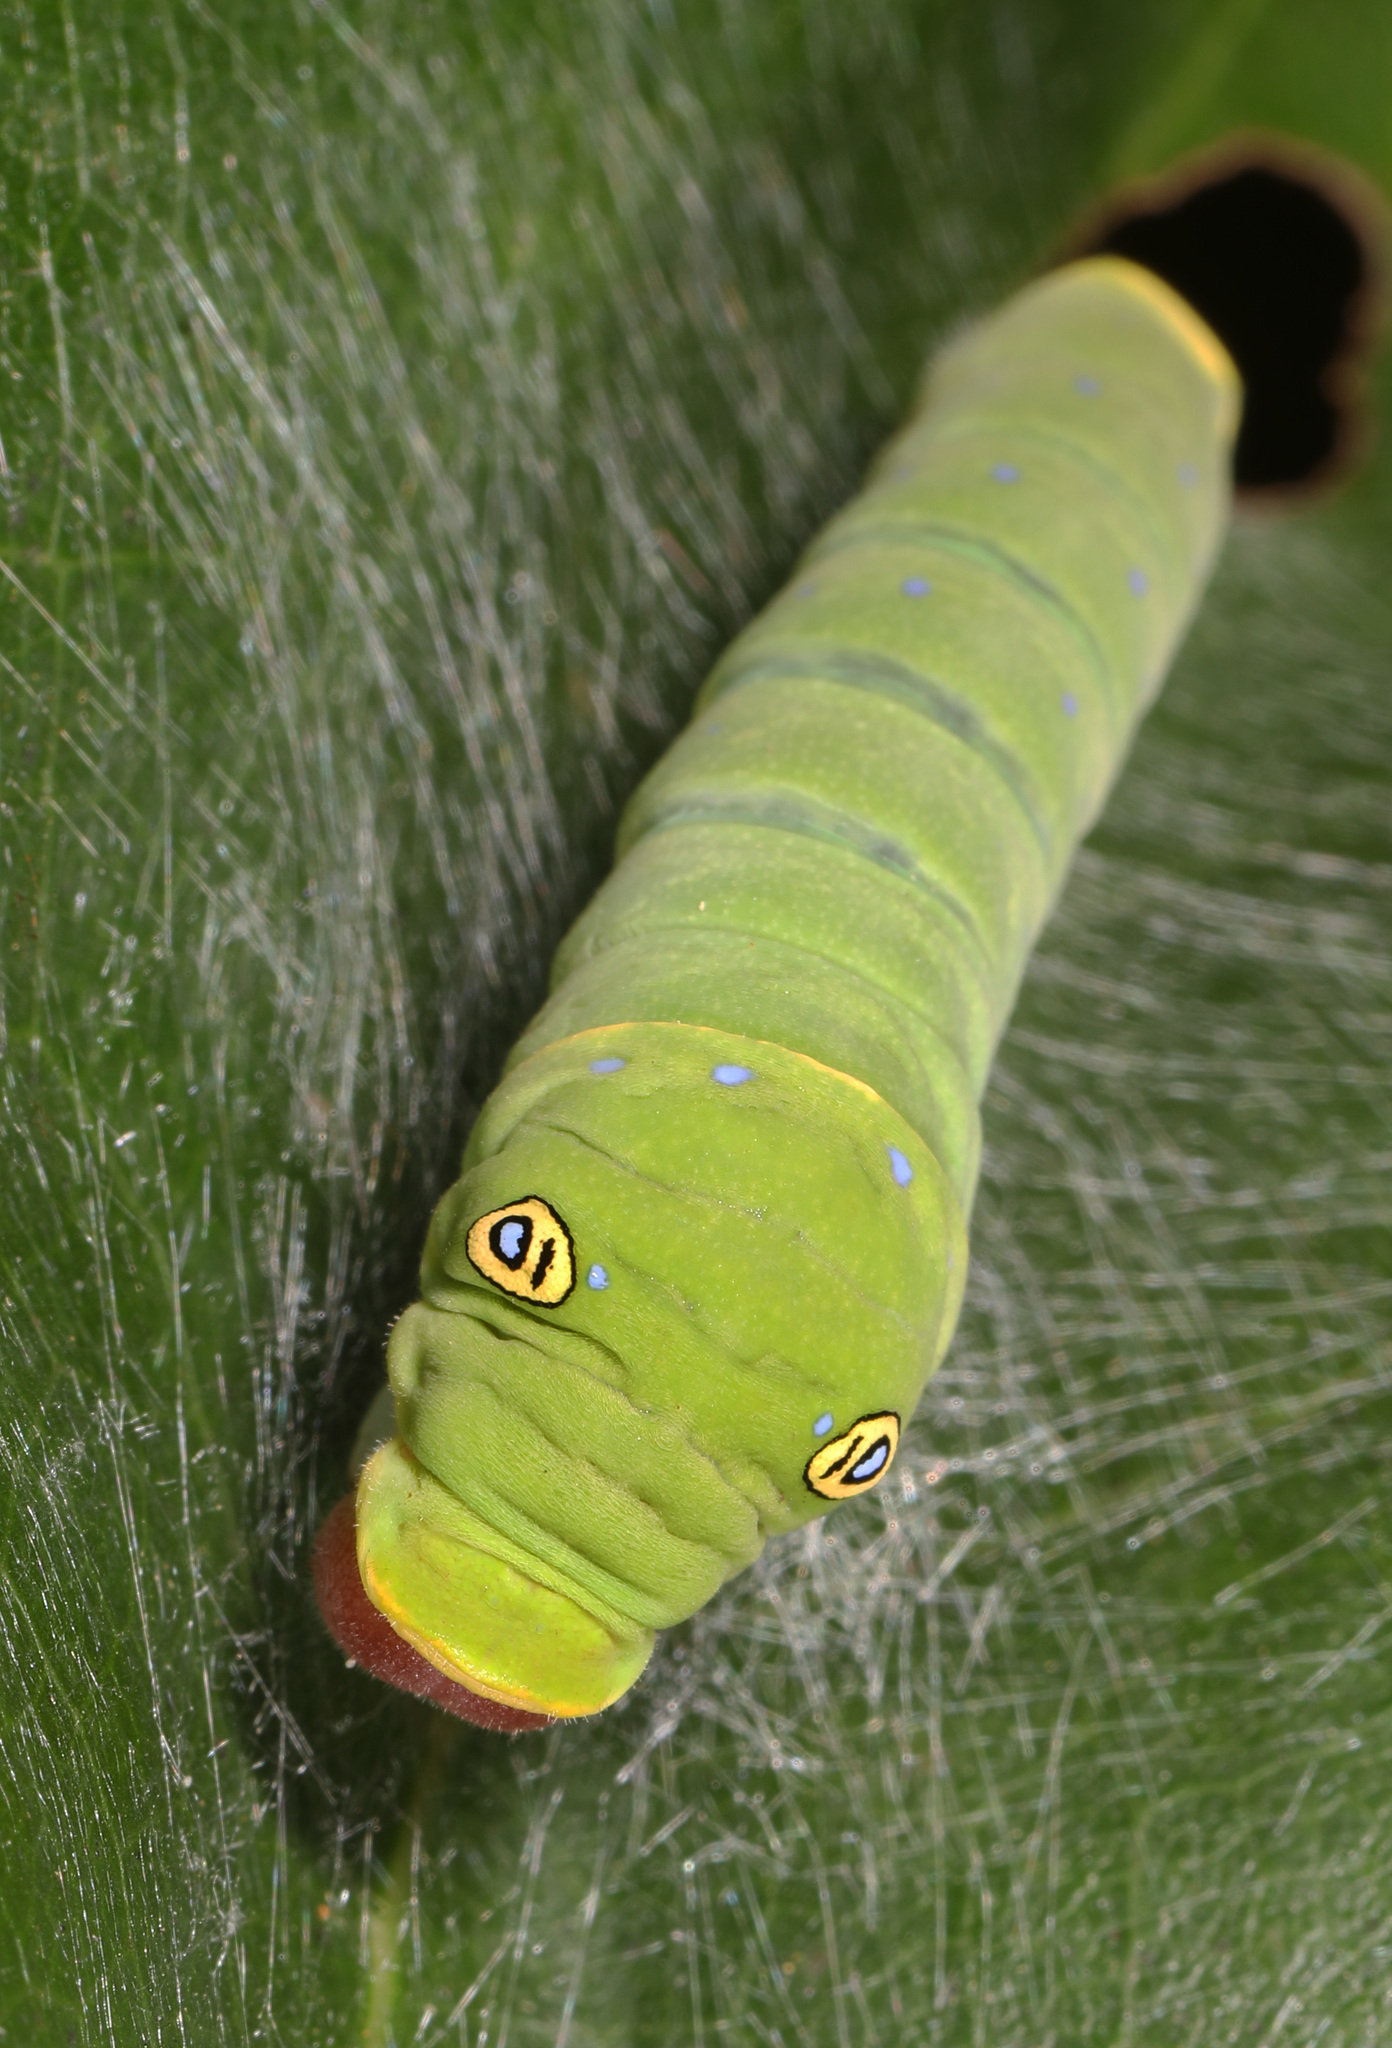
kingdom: Animalia
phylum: Arthropoda
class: Insecta
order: Lepidoptera
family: Papilionidae
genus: Papilio
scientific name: Papilio glaucus
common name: Tiger swallowtail
